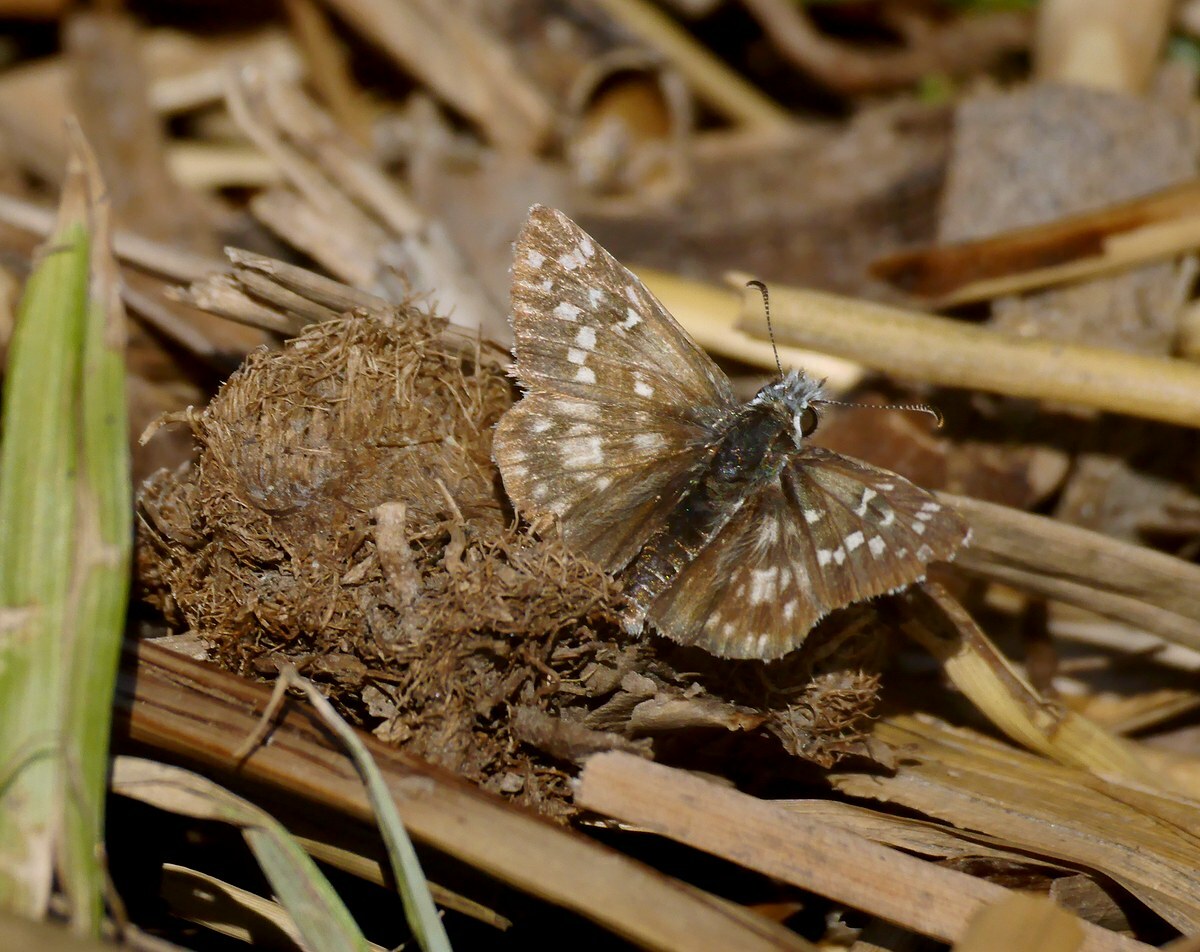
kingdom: Animalia
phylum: Arthropoda
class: Insecta
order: Lepidoptera
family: Hesperiidae
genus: Pyrgus
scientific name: Pyrgus armoricanus
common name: Oberthür's grizzled skipper
